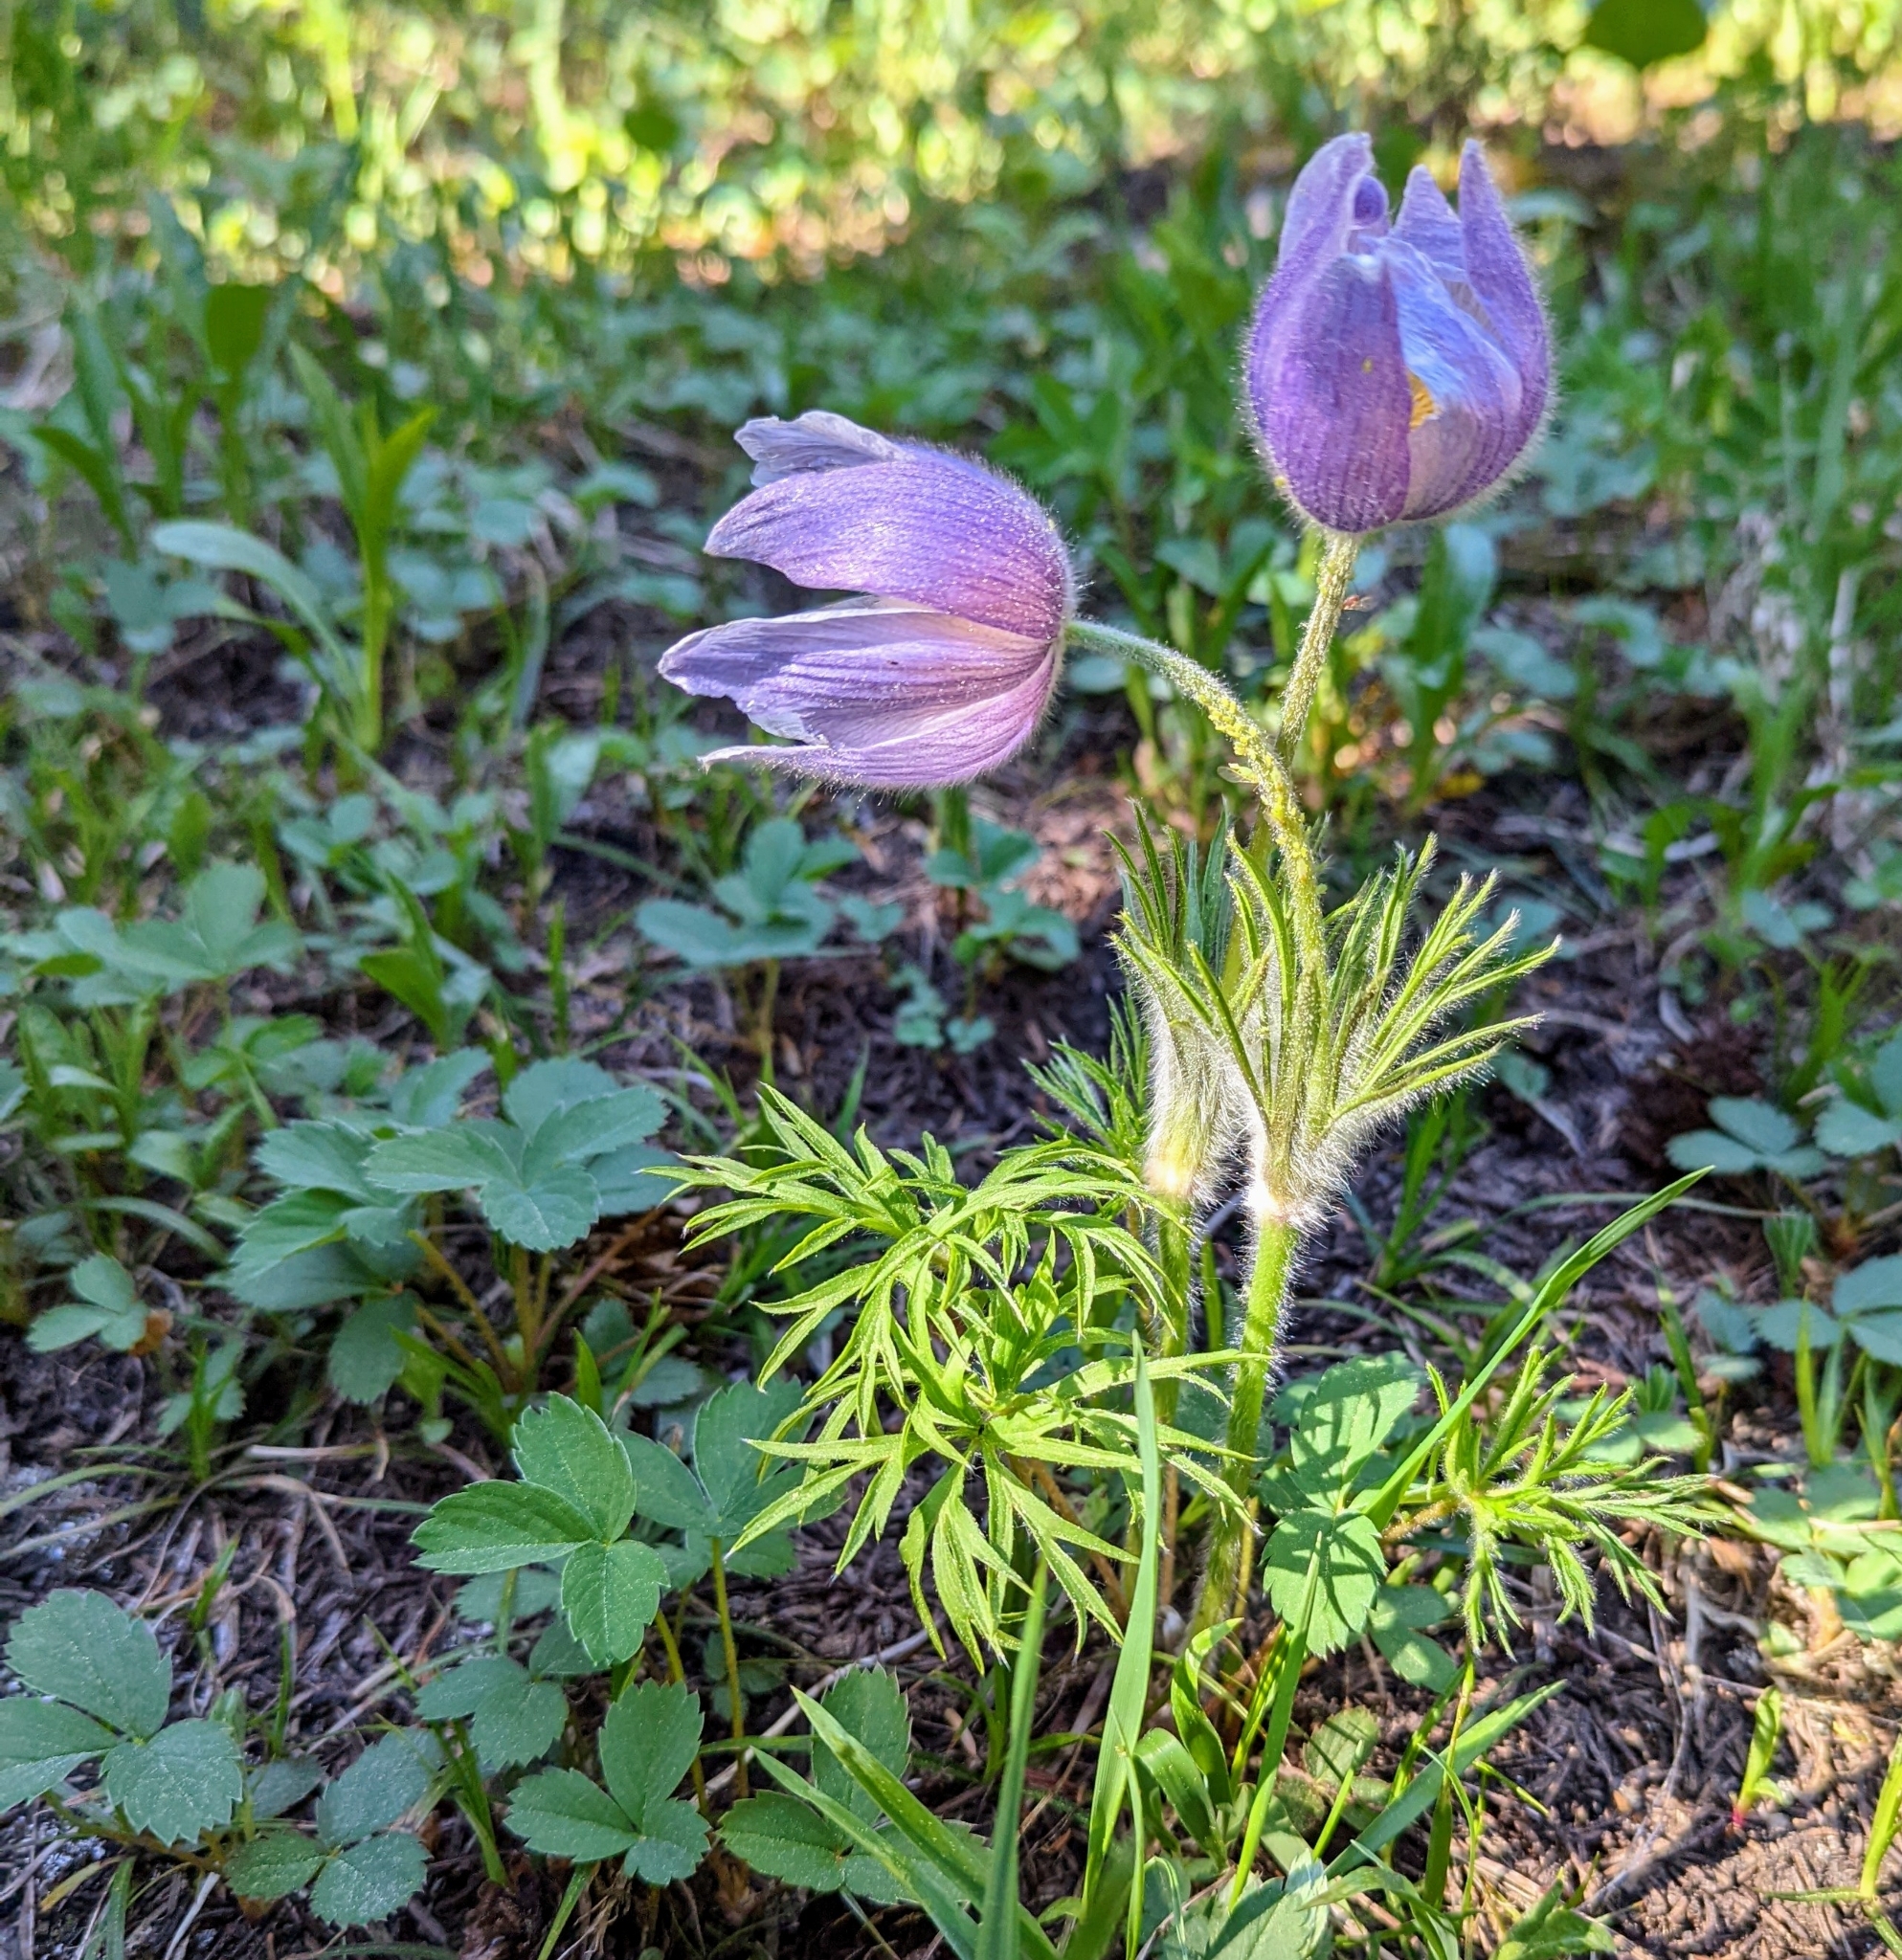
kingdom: Plantae
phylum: Tracheophyta
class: Magnoliopsida
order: Ranunculales
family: Ranunculaceae
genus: Pulsatilla
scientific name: Pulsatilla nuttalliana
